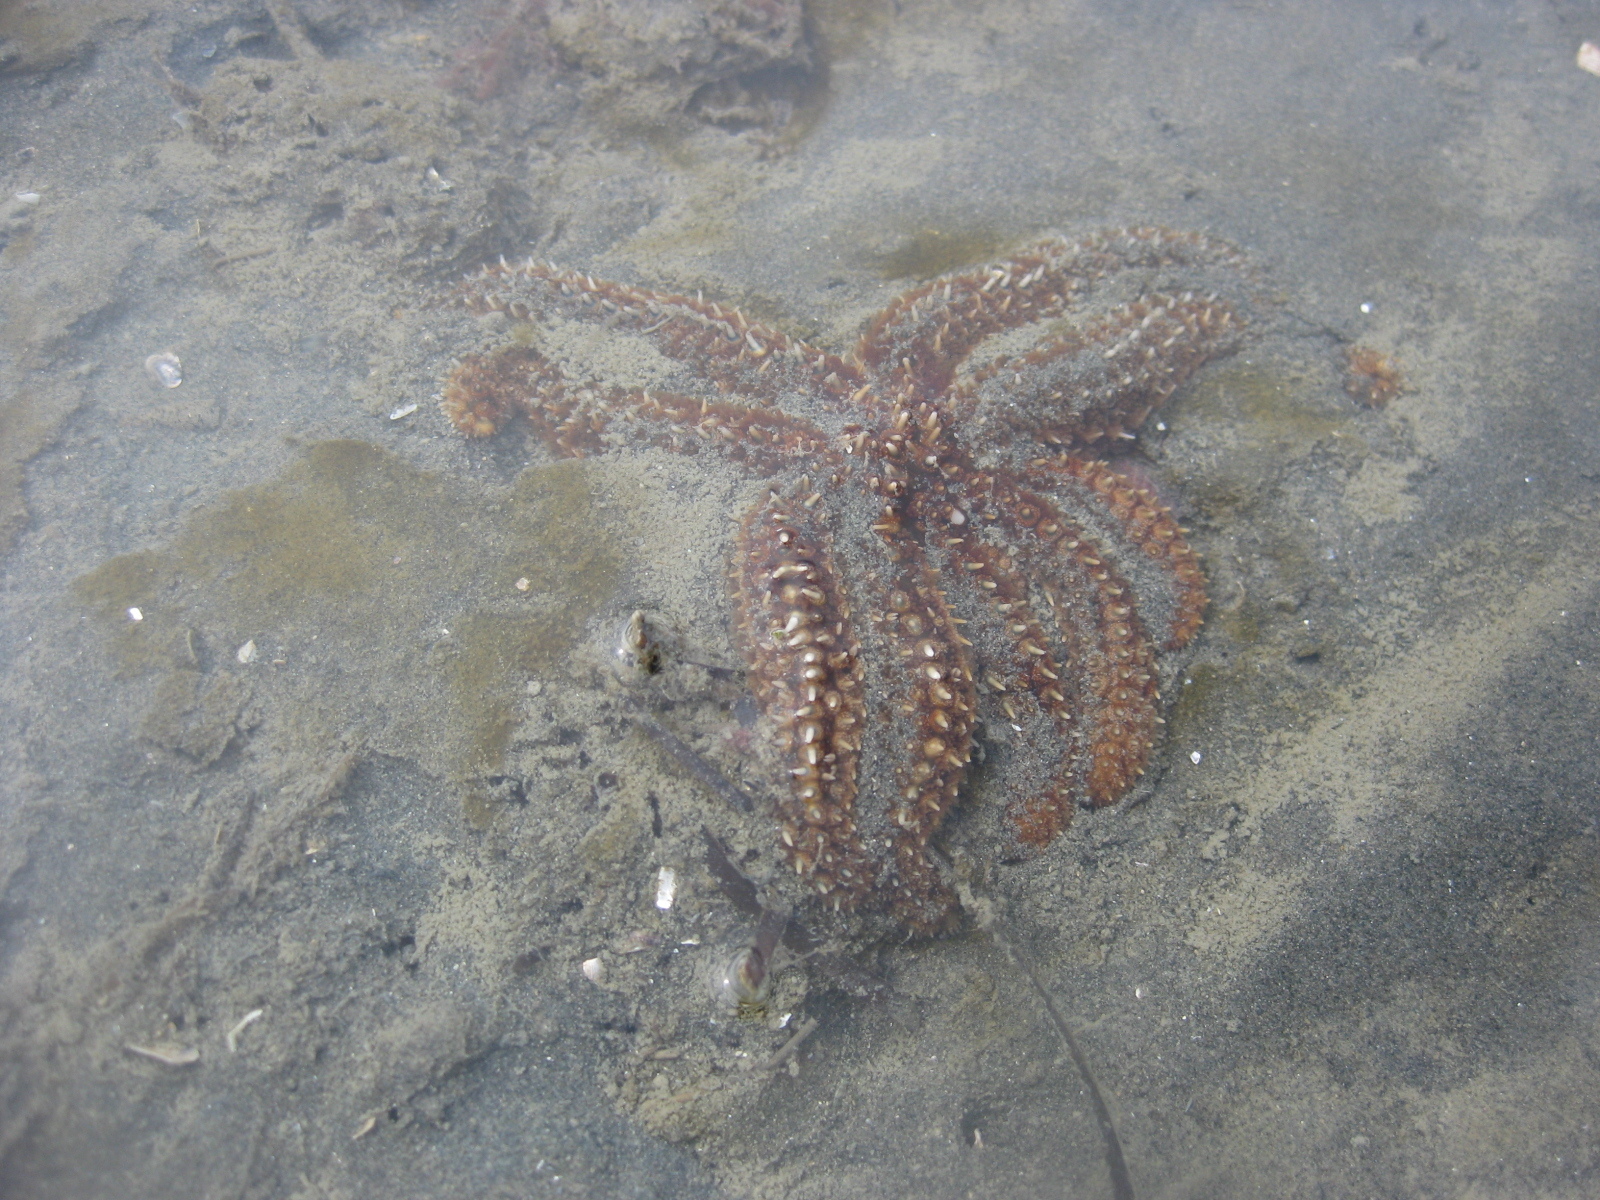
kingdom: Animalia
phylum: Echinodermata
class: Asteroidea
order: Forcipulatida
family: Asteriidae
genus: Coscinasterias
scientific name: Coscinasterias muricata
